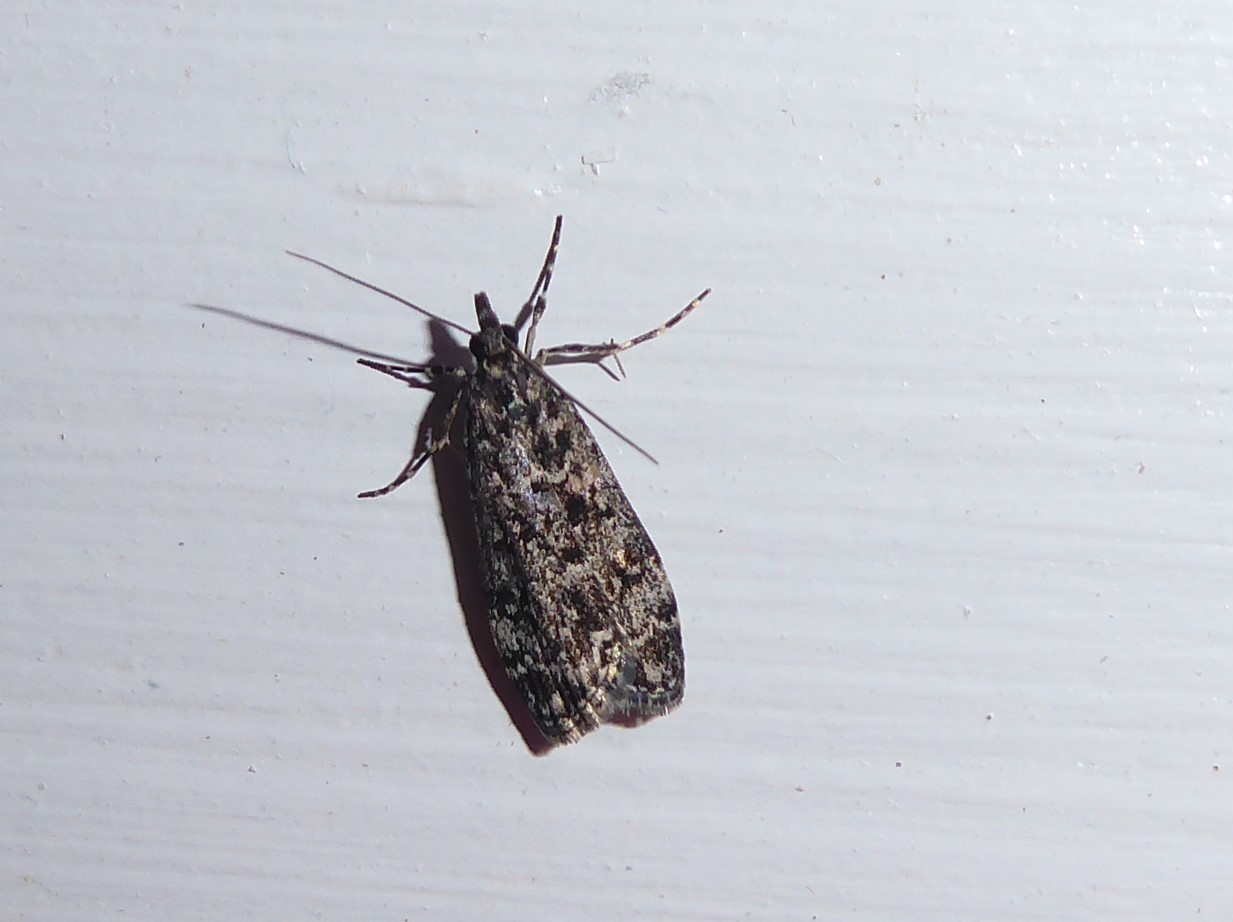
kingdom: Animalia
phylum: Arthropoda
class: Insecta
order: Lepidoptera
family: Crambidae
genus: Eudonia
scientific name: Eudonia philerga
